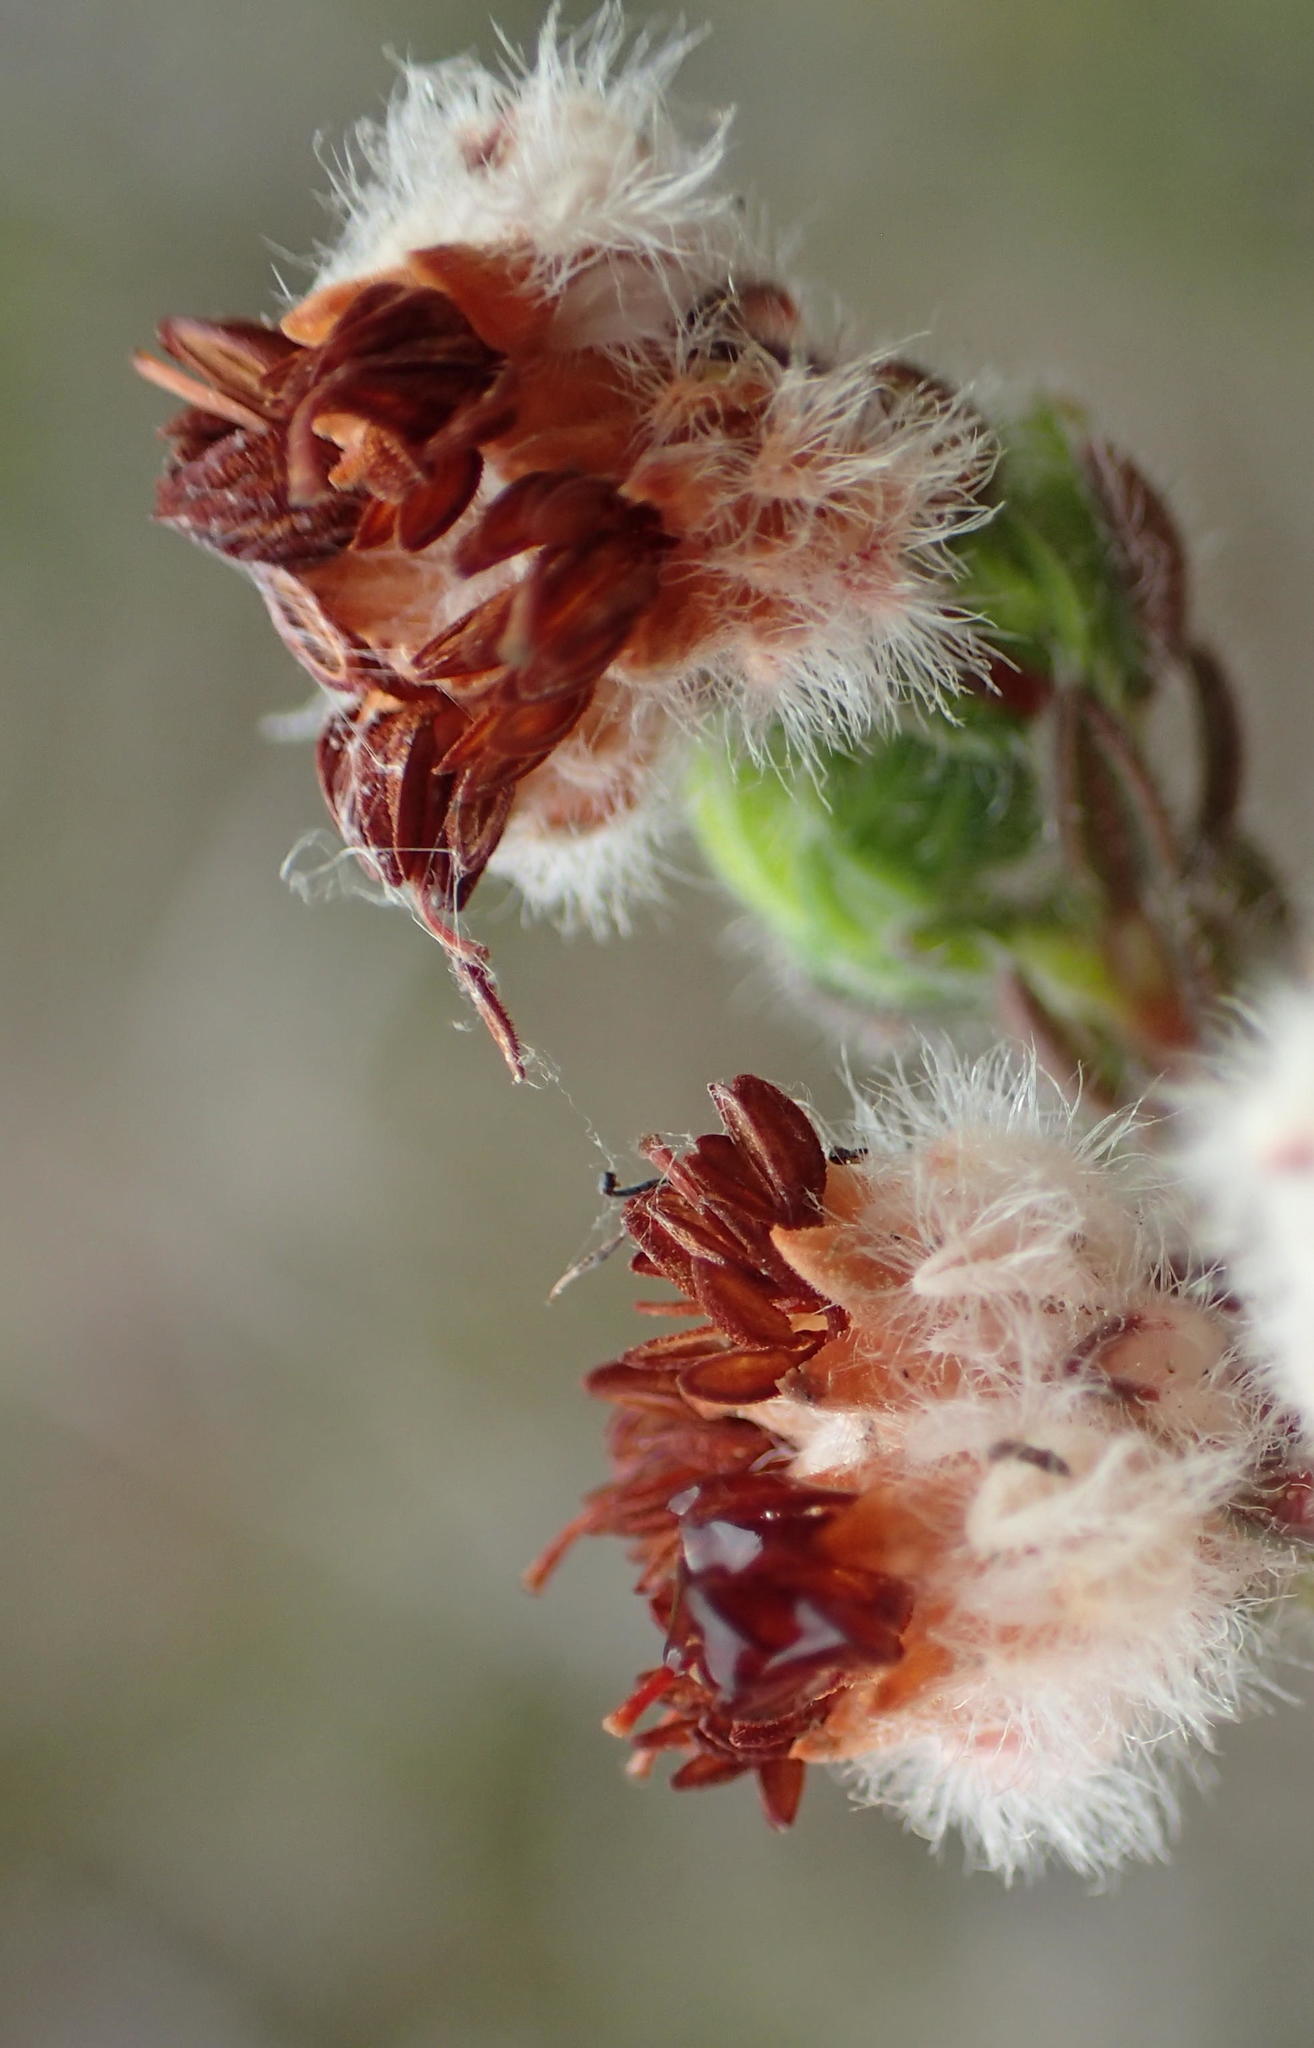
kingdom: Plantae
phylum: Tracheophyta
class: Magnoliopsida
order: Ericales
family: Ericaceae
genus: Erica
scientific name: Erica flaccida
